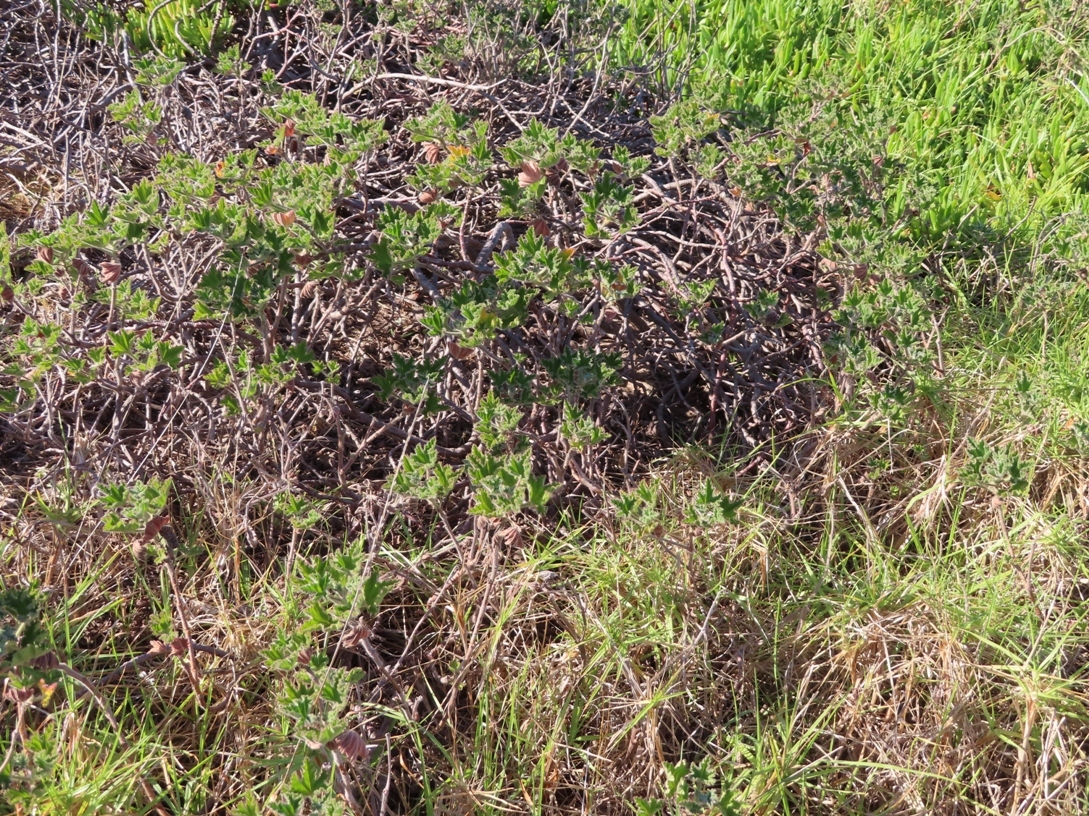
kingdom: Plantae
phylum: Tracheophyta
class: Magnoliopsida
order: Geraniales
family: Geraniaceae
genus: Pelargonium
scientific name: Pelargonium cucullatum
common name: Tree pelargonium
